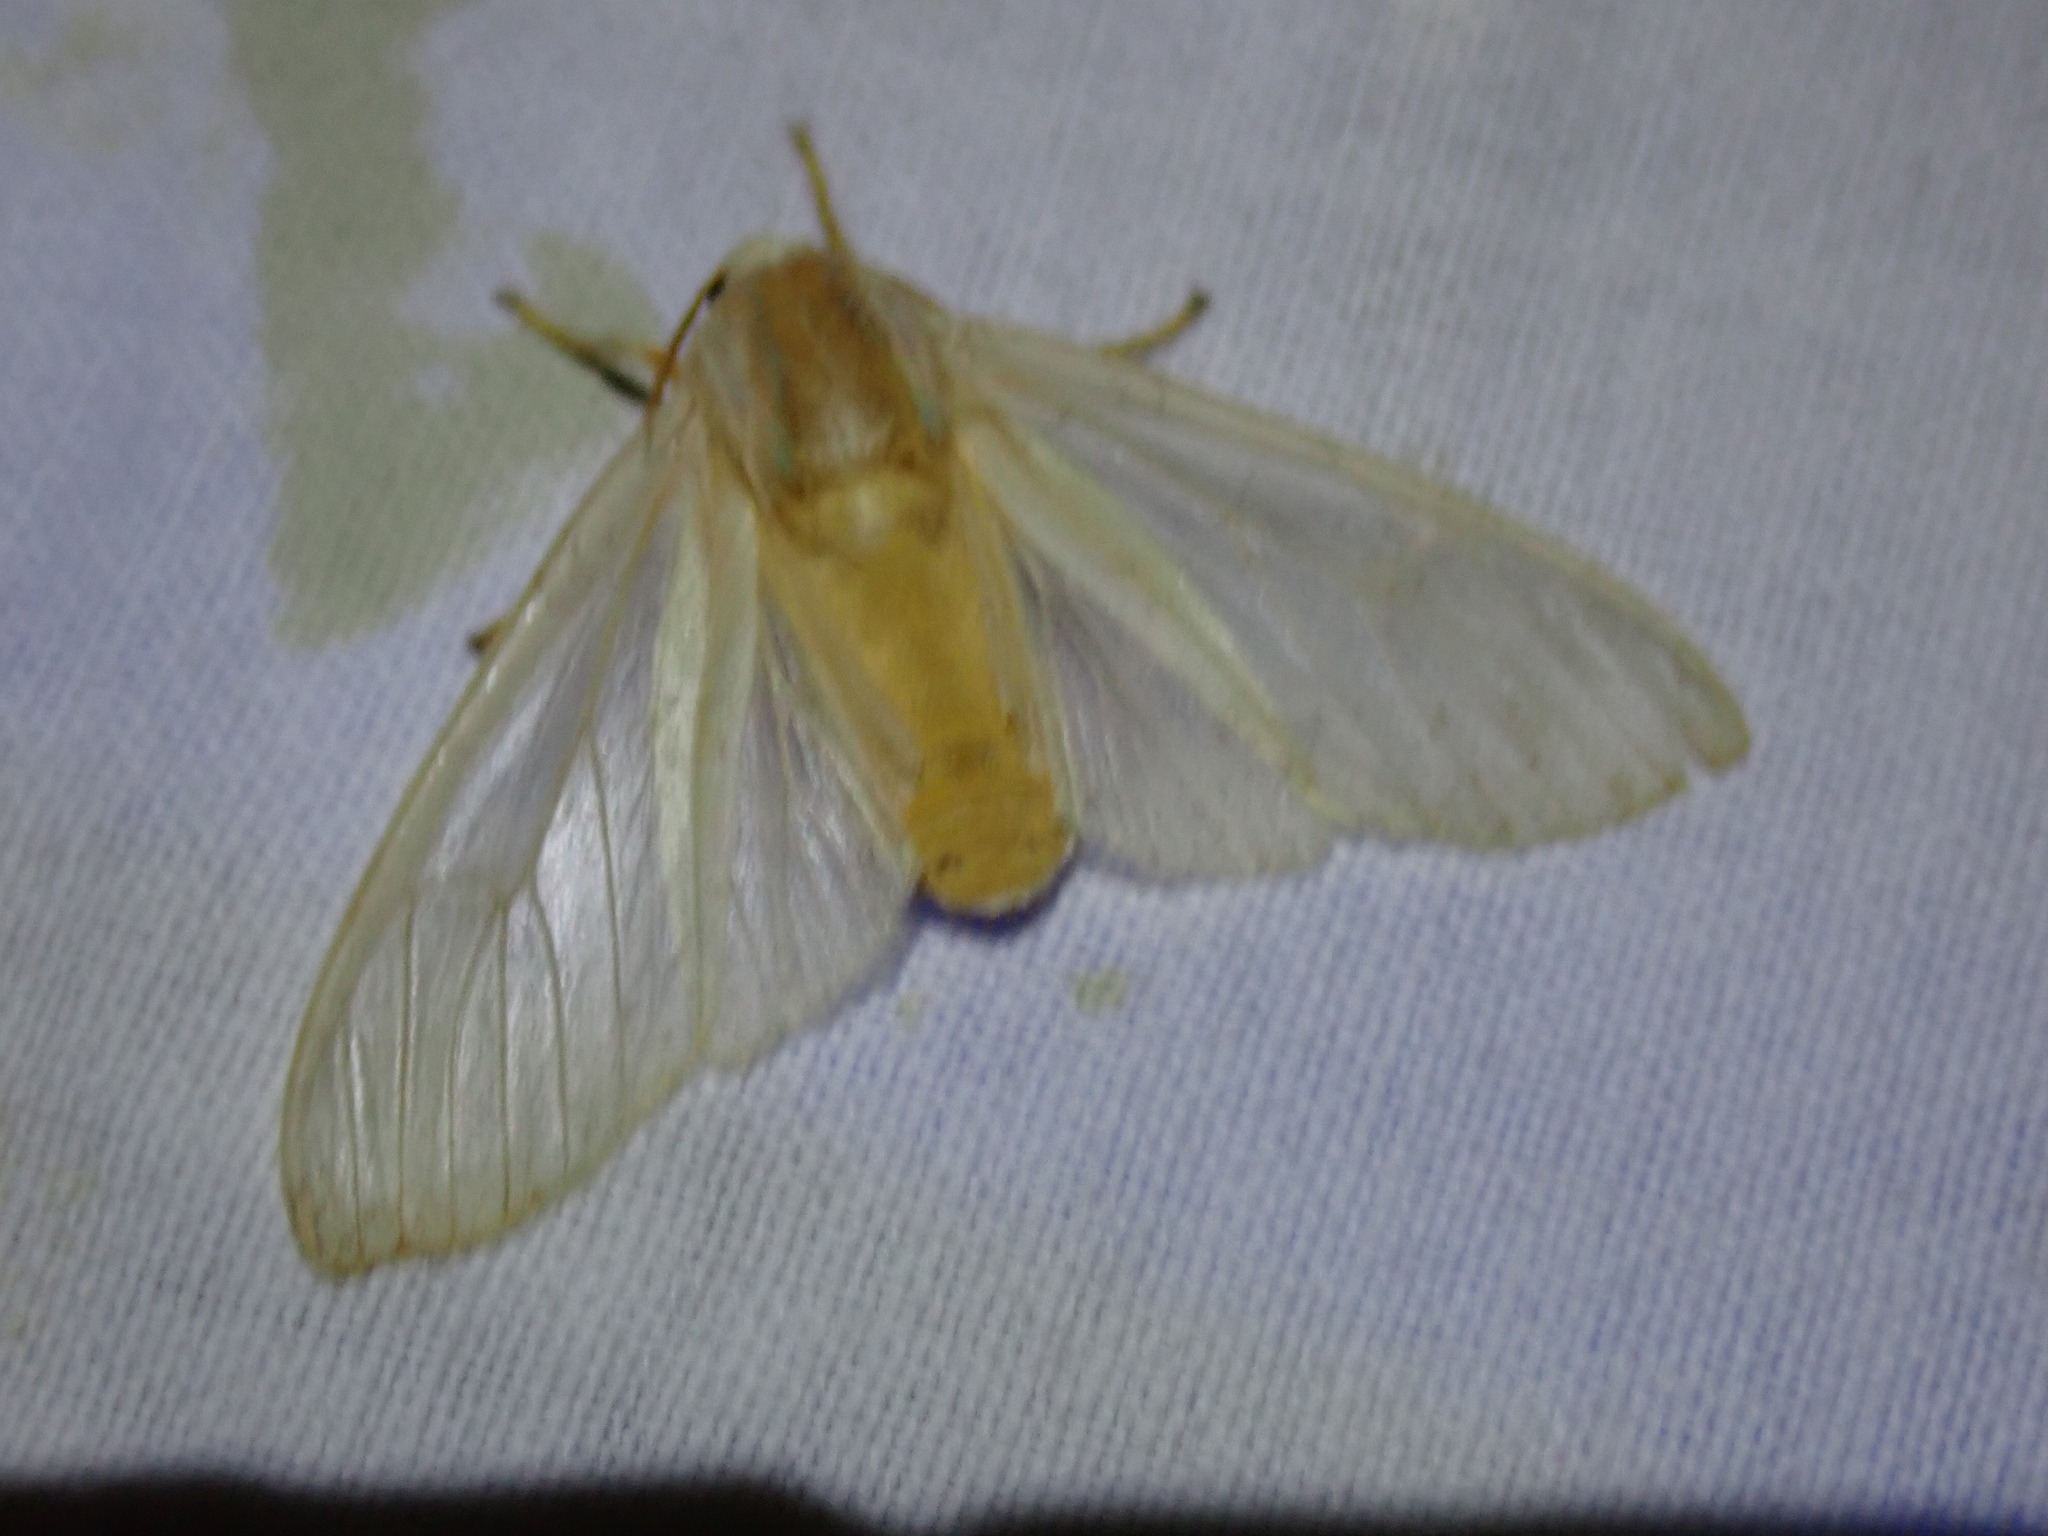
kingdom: Animalia
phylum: Arthropoda
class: Insecta
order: Lepidoptera
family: Erebidae
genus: Halysidota
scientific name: Halysidota tessellaris
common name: Banded tussock moth
